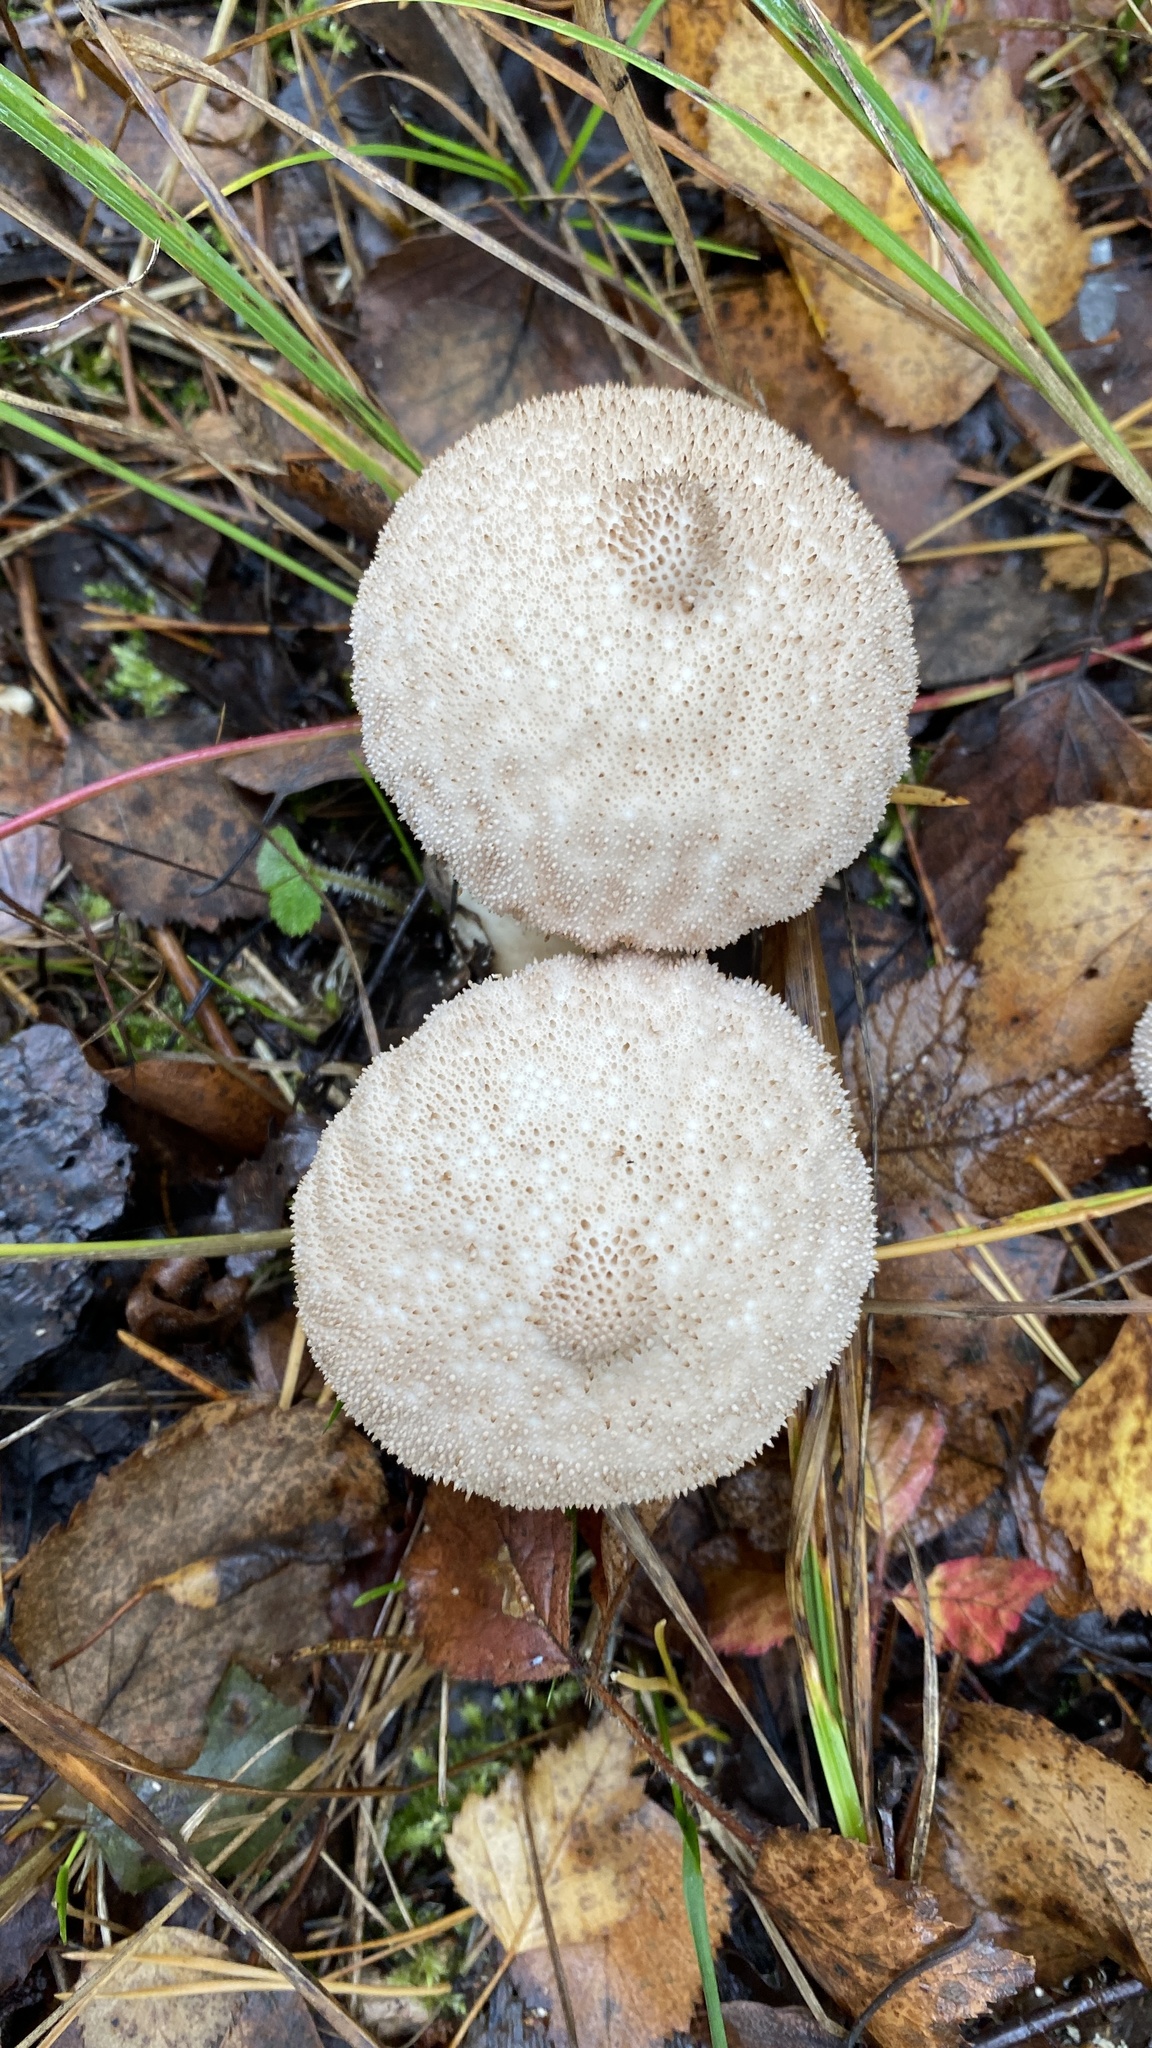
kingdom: Fungi
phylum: Basidiomycota
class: Agaricomycetes
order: Agaricales
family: Lycoperdaceae
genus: Lycoperdon
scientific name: Lycoperdon perlatum
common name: Common puffball
